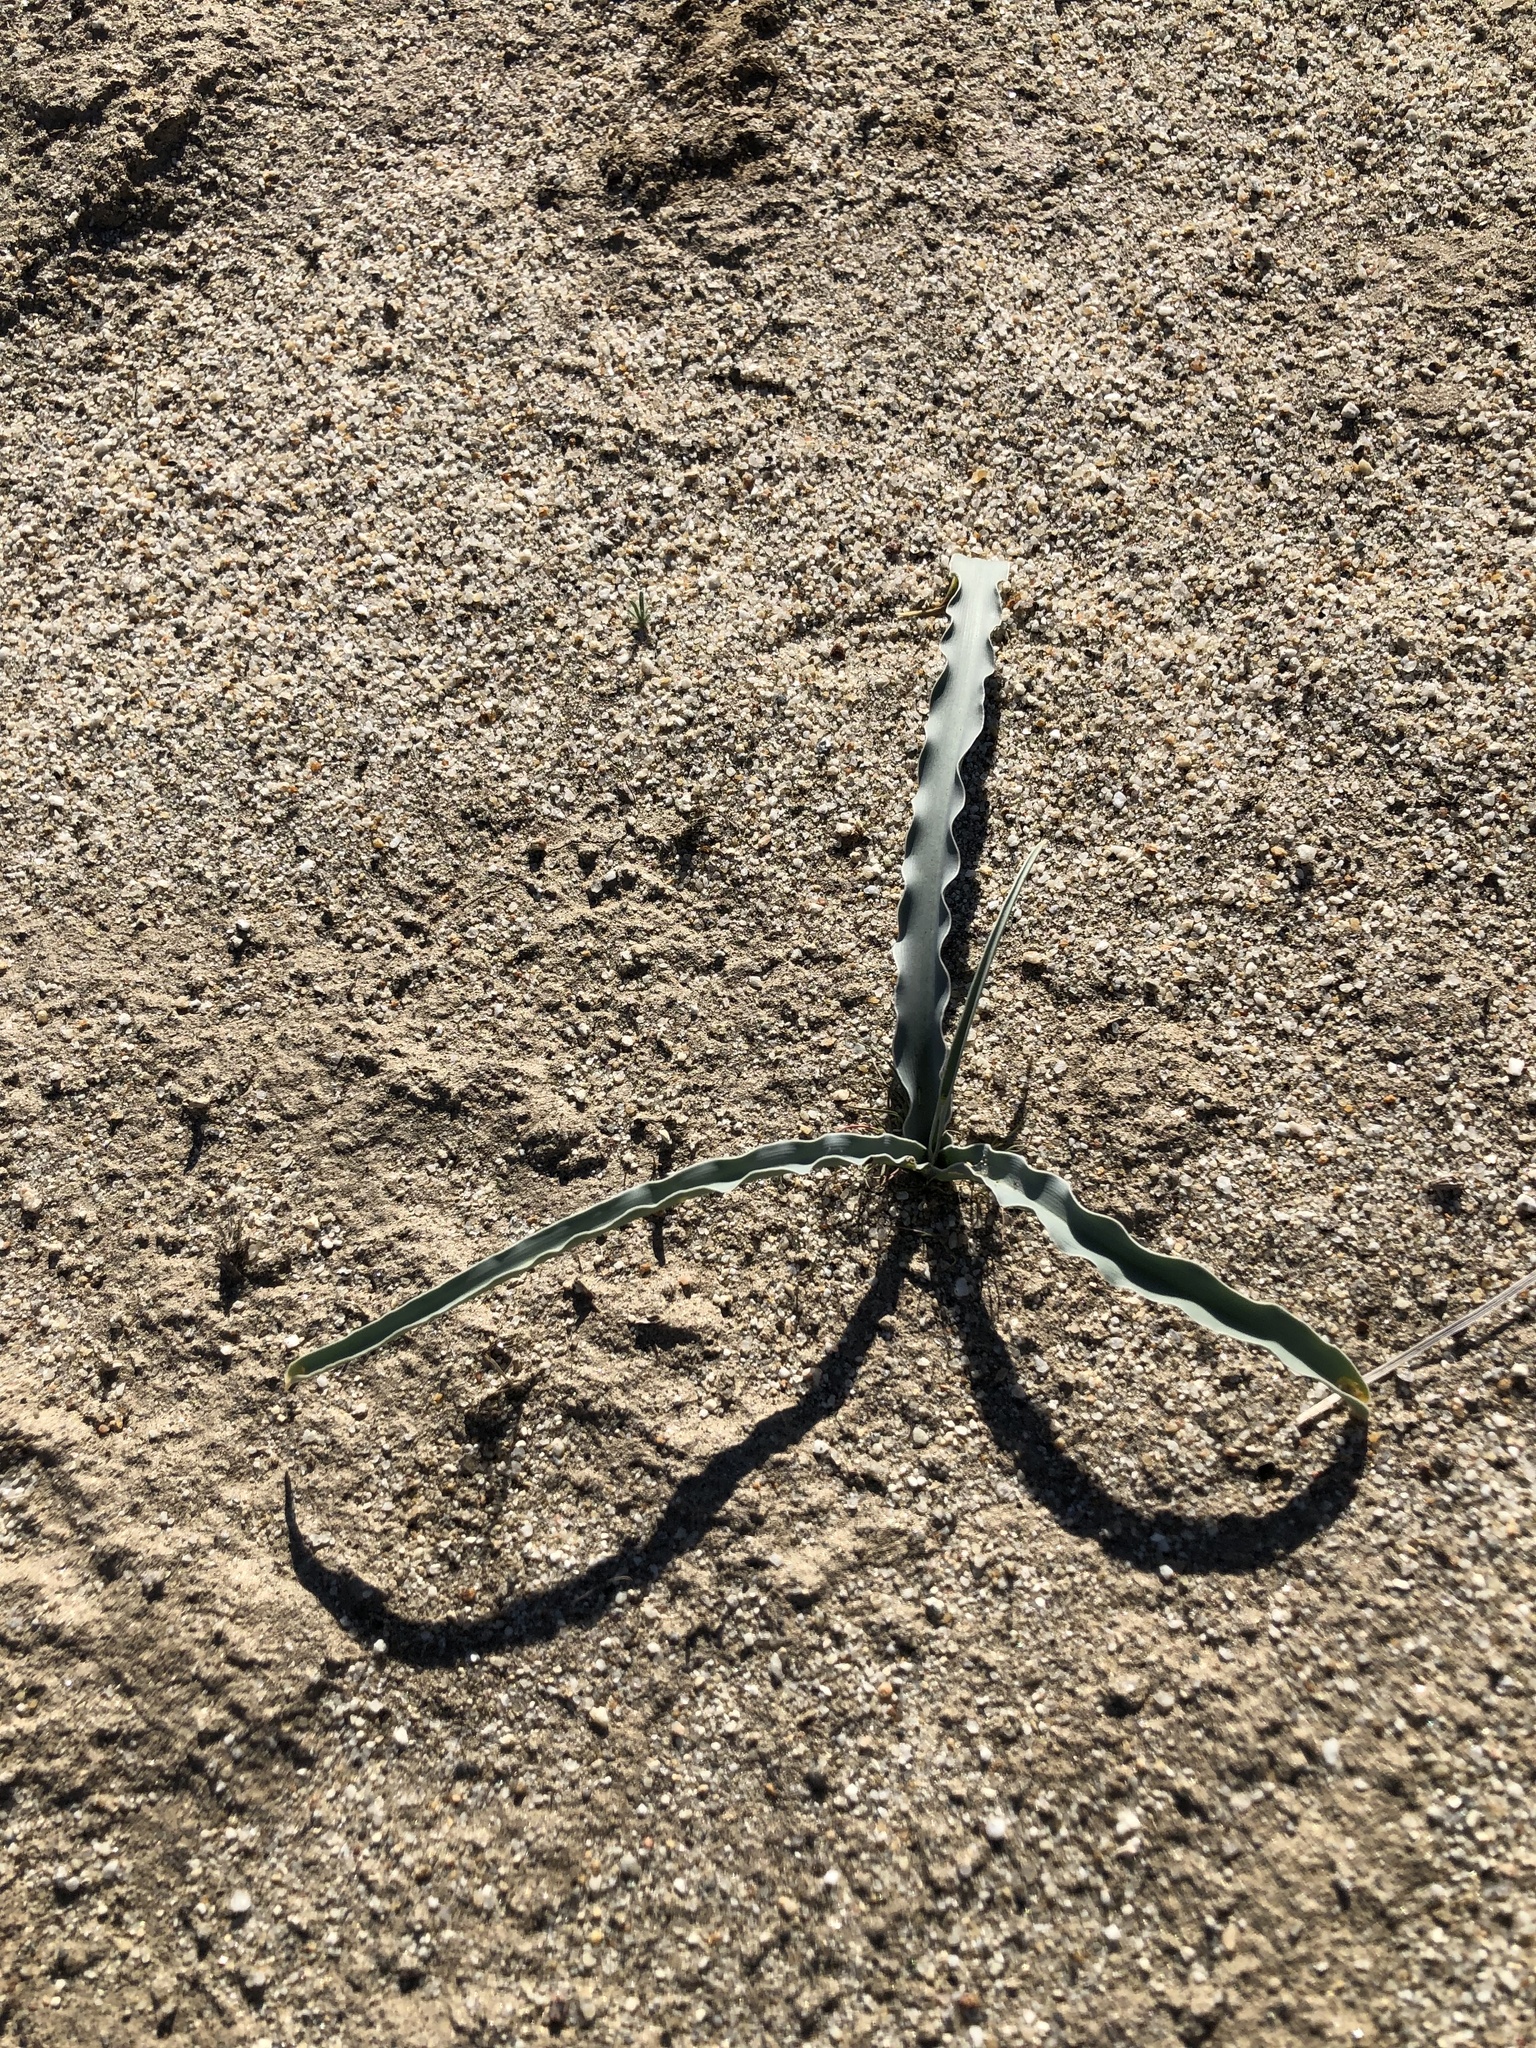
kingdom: Plantae
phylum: Tracheophyta
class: Liliopsida
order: Asparagales
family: Asparagaceae
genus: Hesperocallis
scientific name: Hesperocallis undulata
